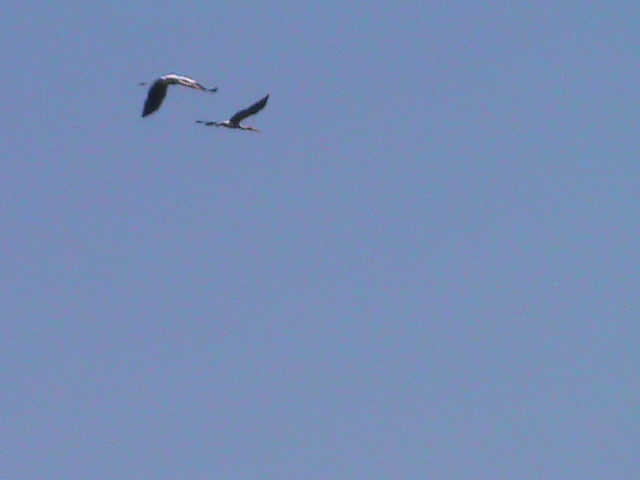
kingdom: Animalia
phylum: Chordata
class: Aves
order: Ciconiiformes
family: Ciconiidae
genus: Mycteria
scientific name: Mycteria leucocephala
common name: Painted stork
